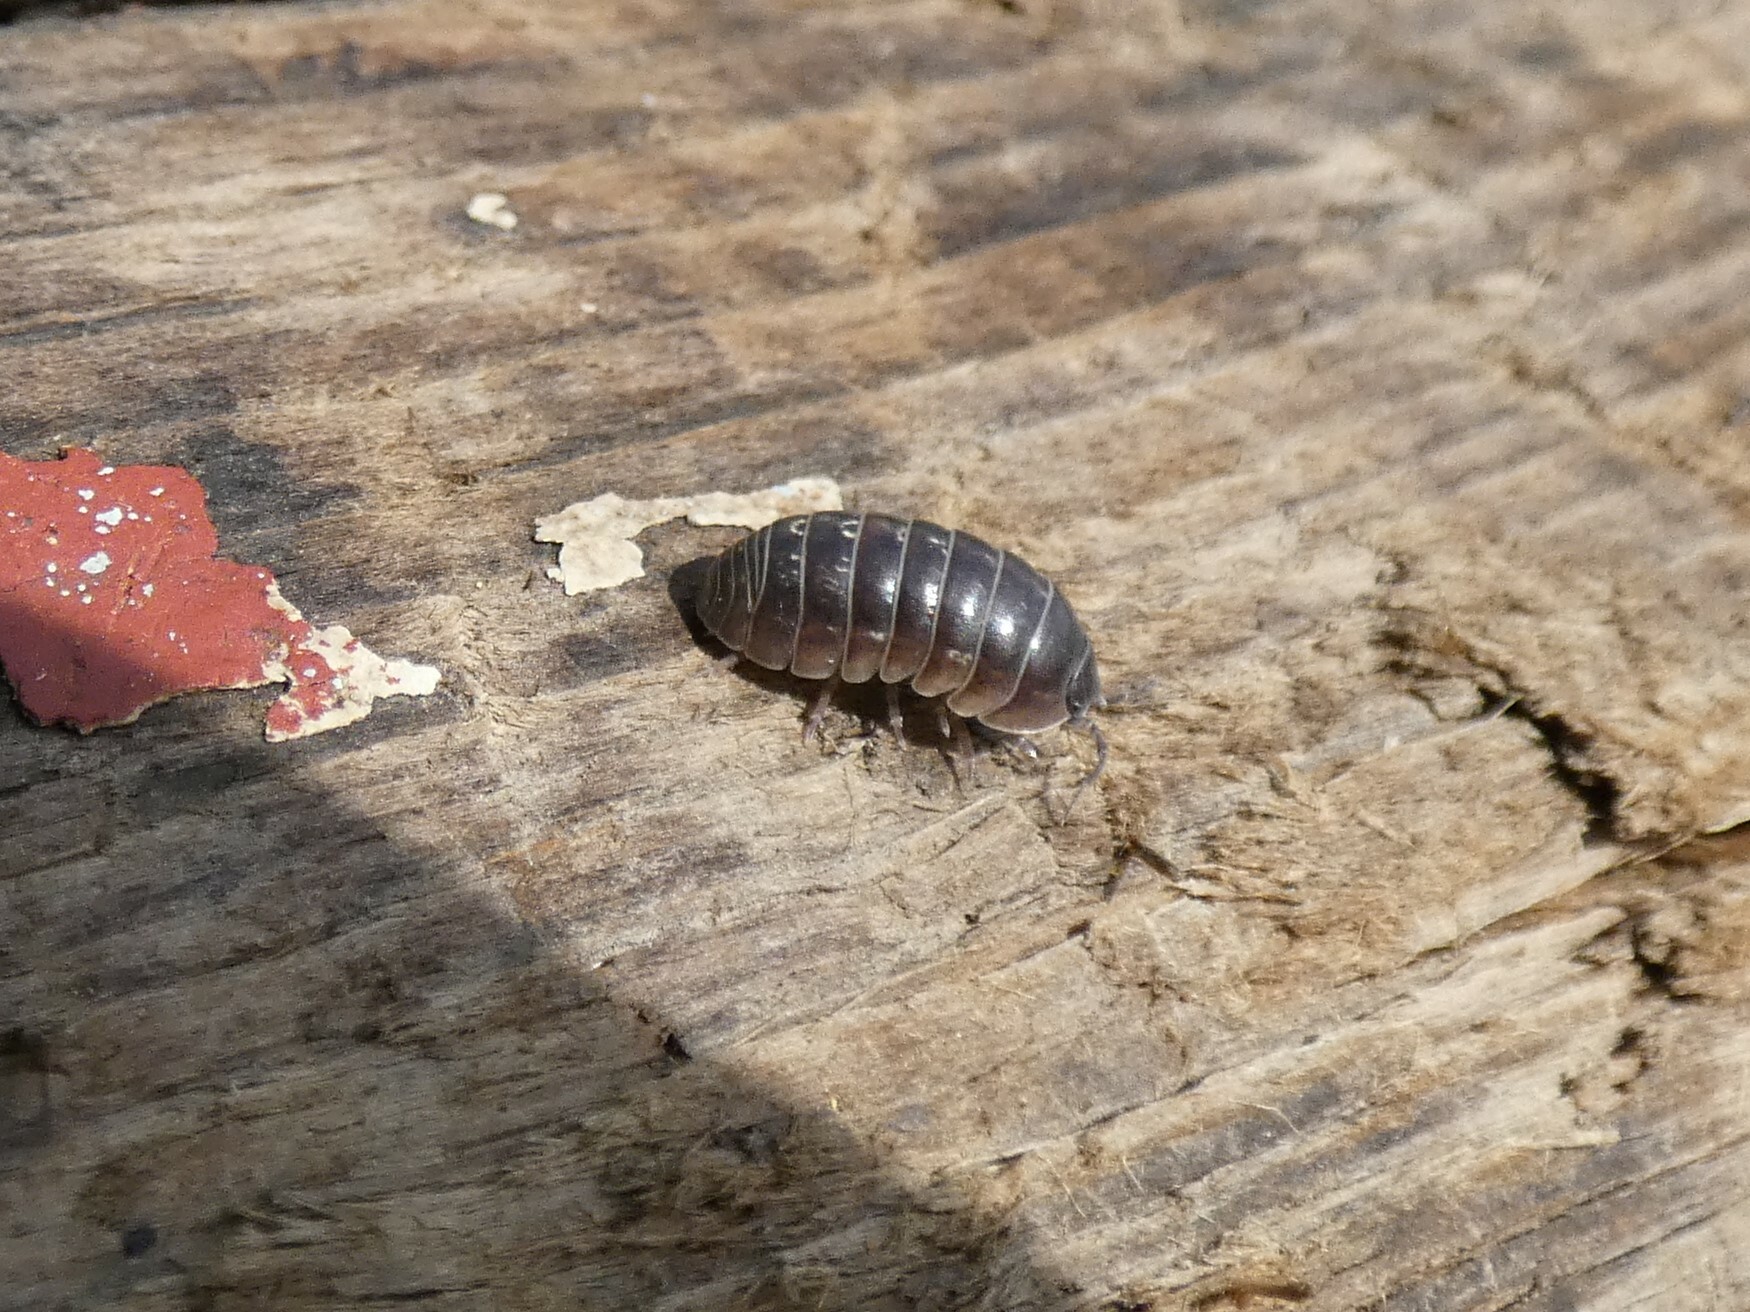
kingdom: Animalia
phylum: Arthropoda
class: Malacostraca
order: Isopoda
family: Armadillidiidae
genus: Armadillidium
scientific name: Armadillidium vulgare
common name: Common pill woodlouse
